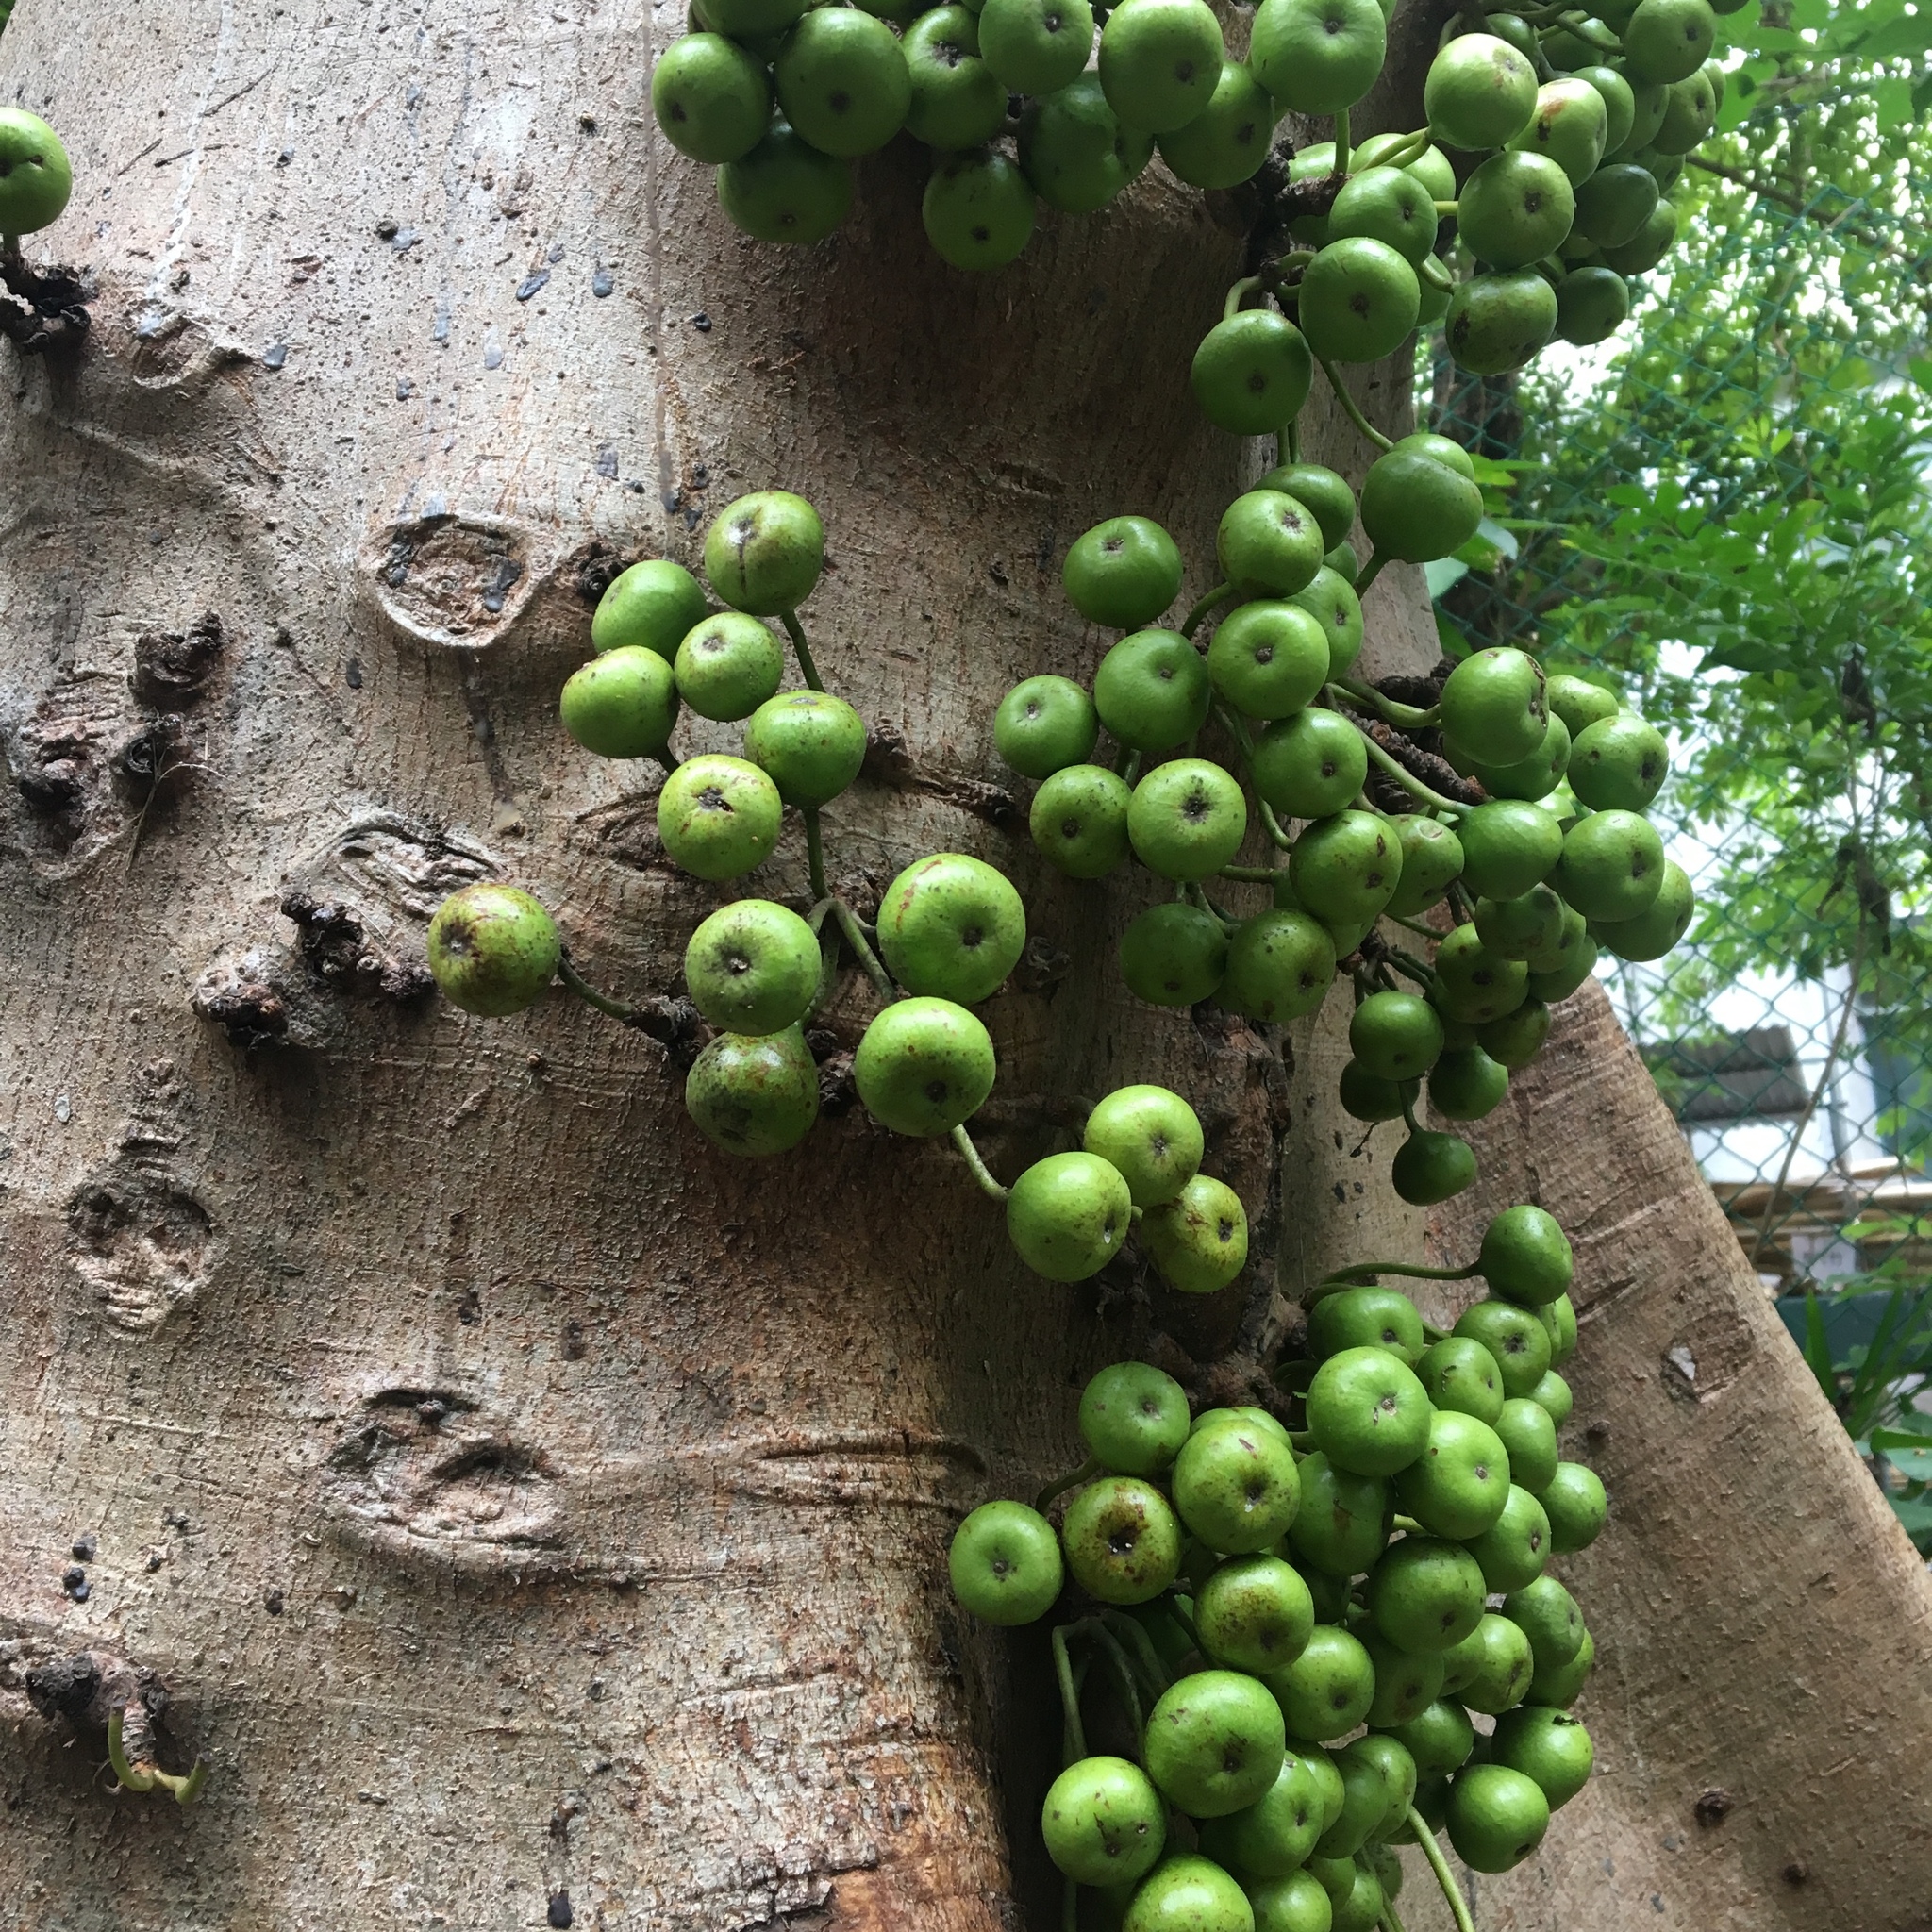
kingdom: Plantae
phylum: Tracheophyta
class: Magnoliopsida
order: Rosales
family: Moraceae
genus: Ficus
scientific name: Ficus variegata
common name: Variegated fig
